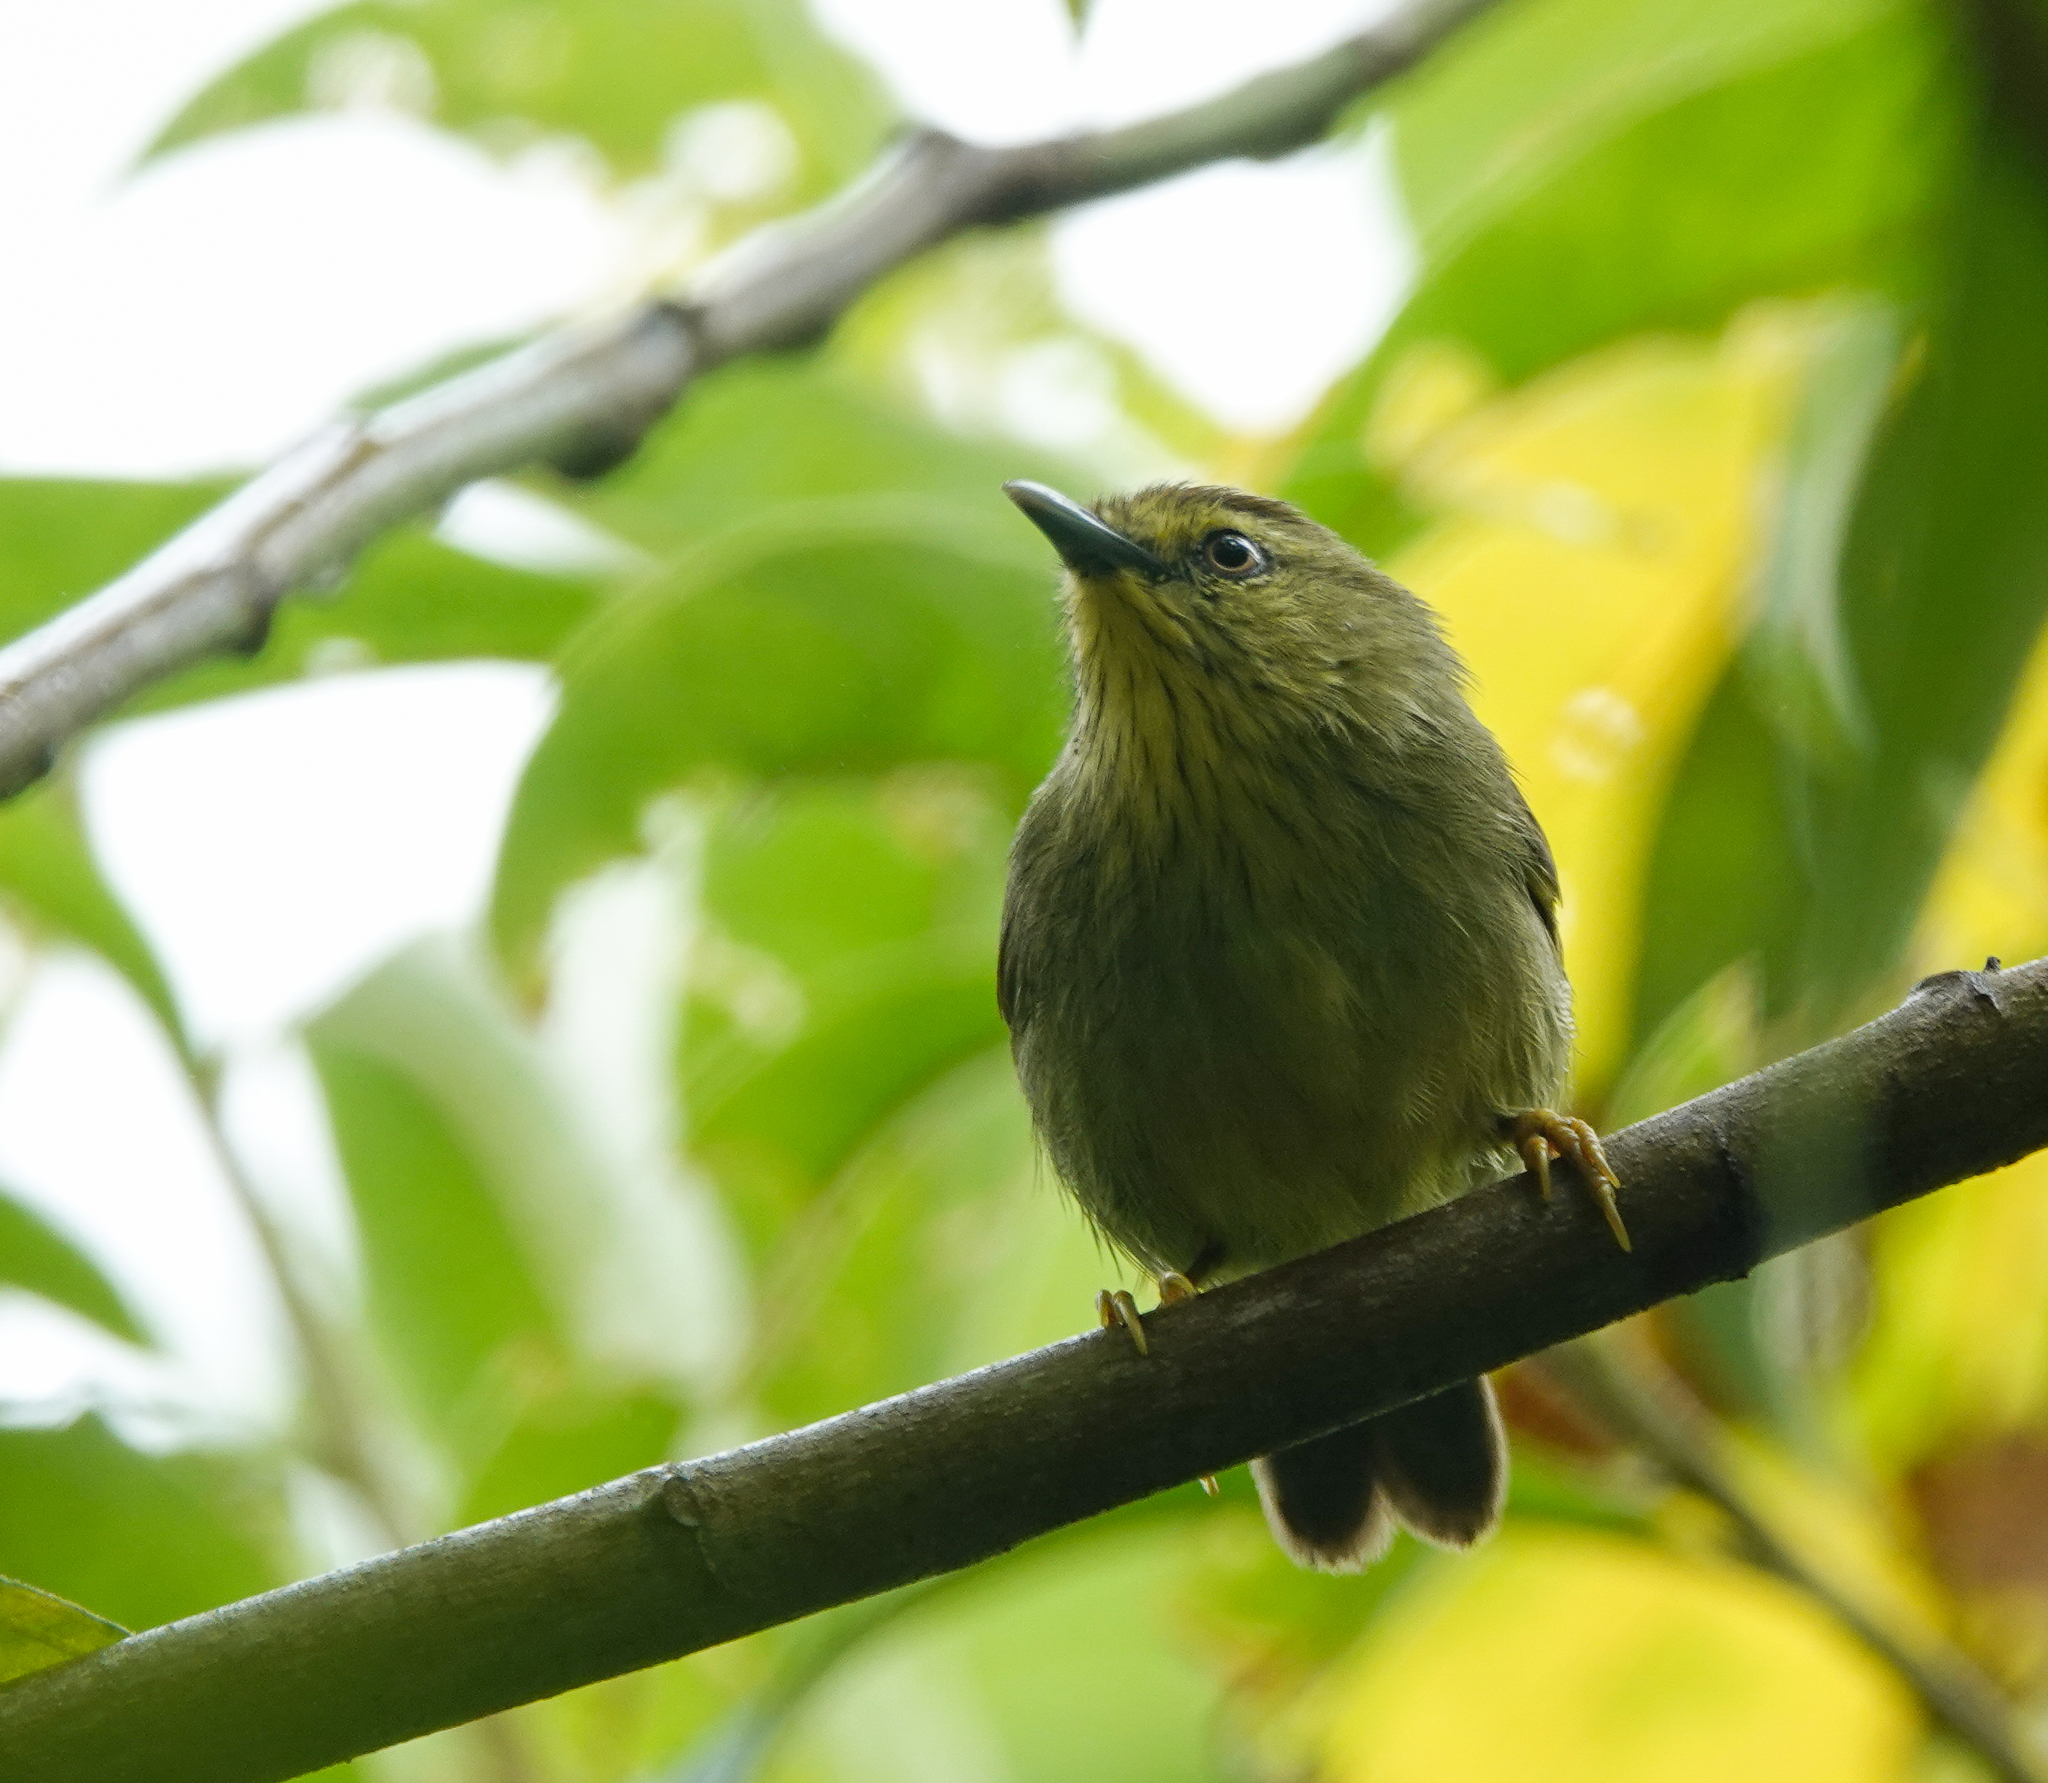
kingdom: Animalia
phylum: Chordata
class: Aves
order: Passeriformes
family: Timaliidae
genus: Macronus
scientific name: Macronus gularis
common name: Striped tit-babbler
